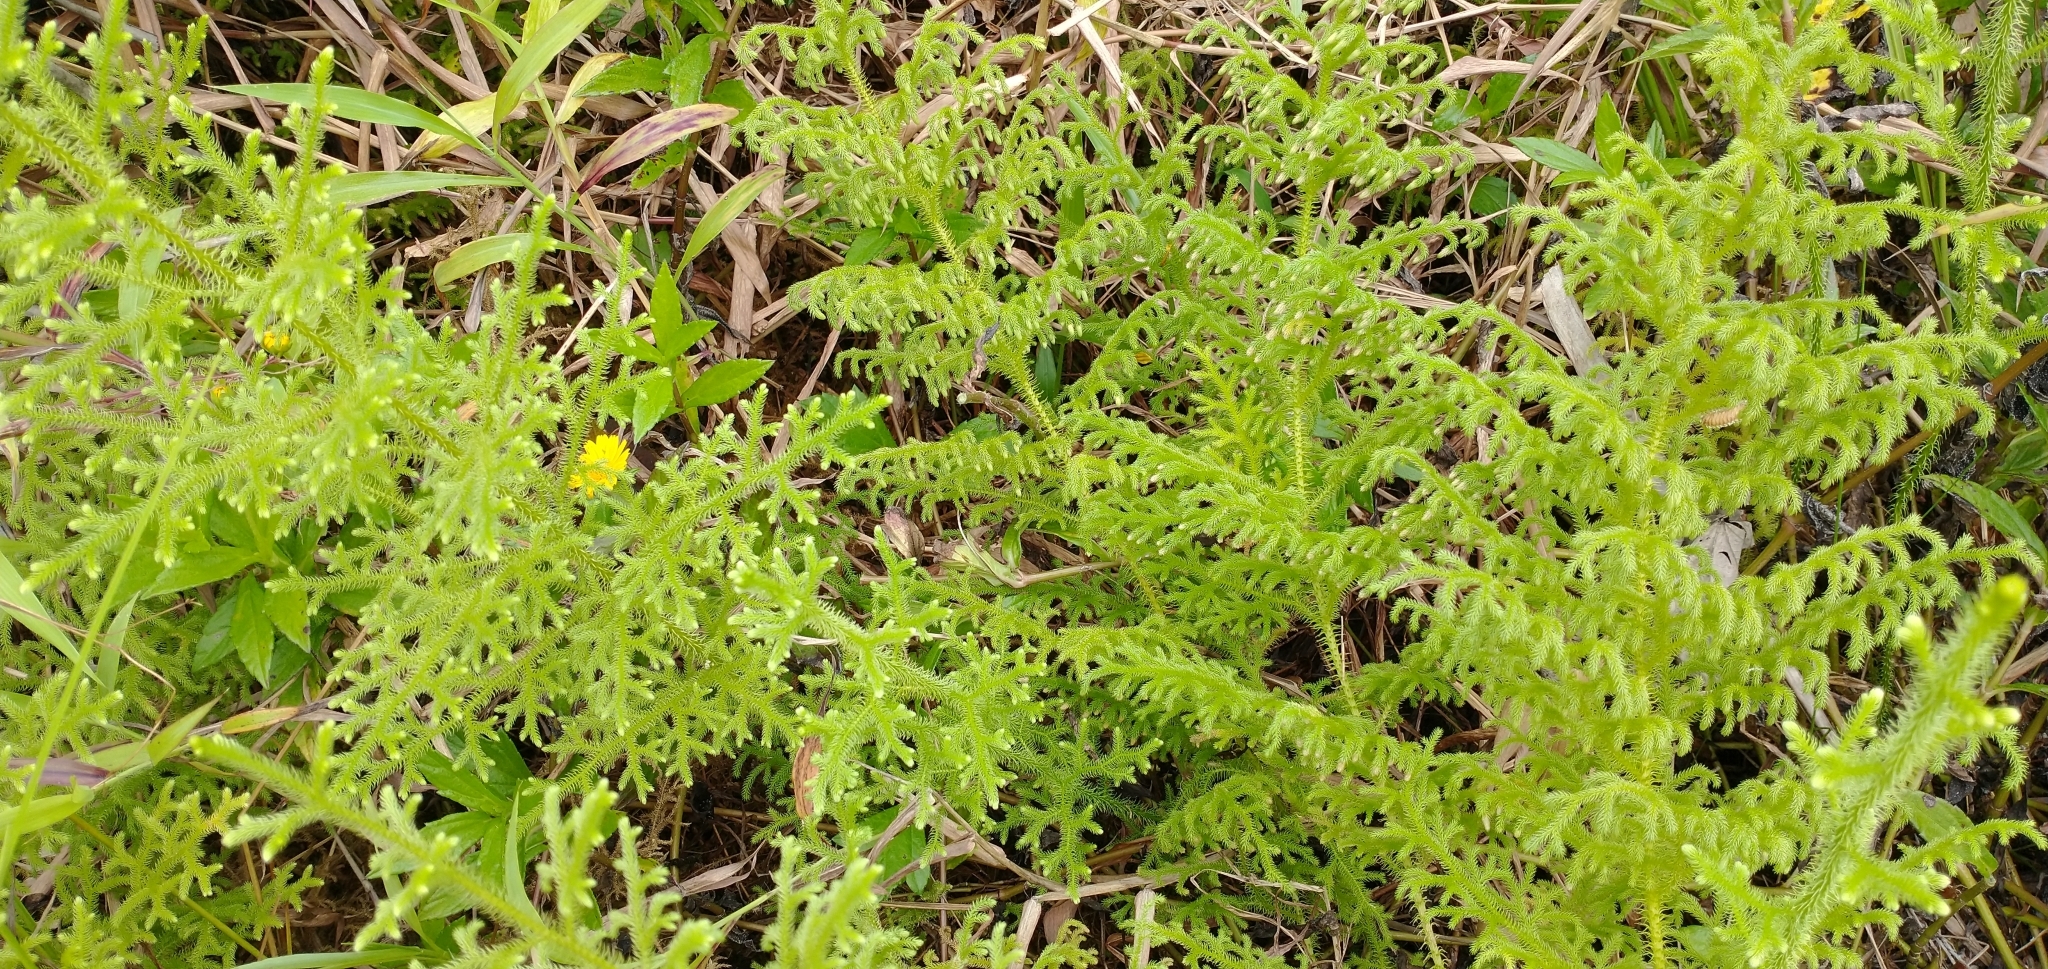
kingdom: Plantae
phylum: Tracheophyta
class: Lycopodiopsida
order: Lycopodiales
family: Lycopodiaceae
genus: Palhinhaea
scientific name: Palhinhaea cernua
